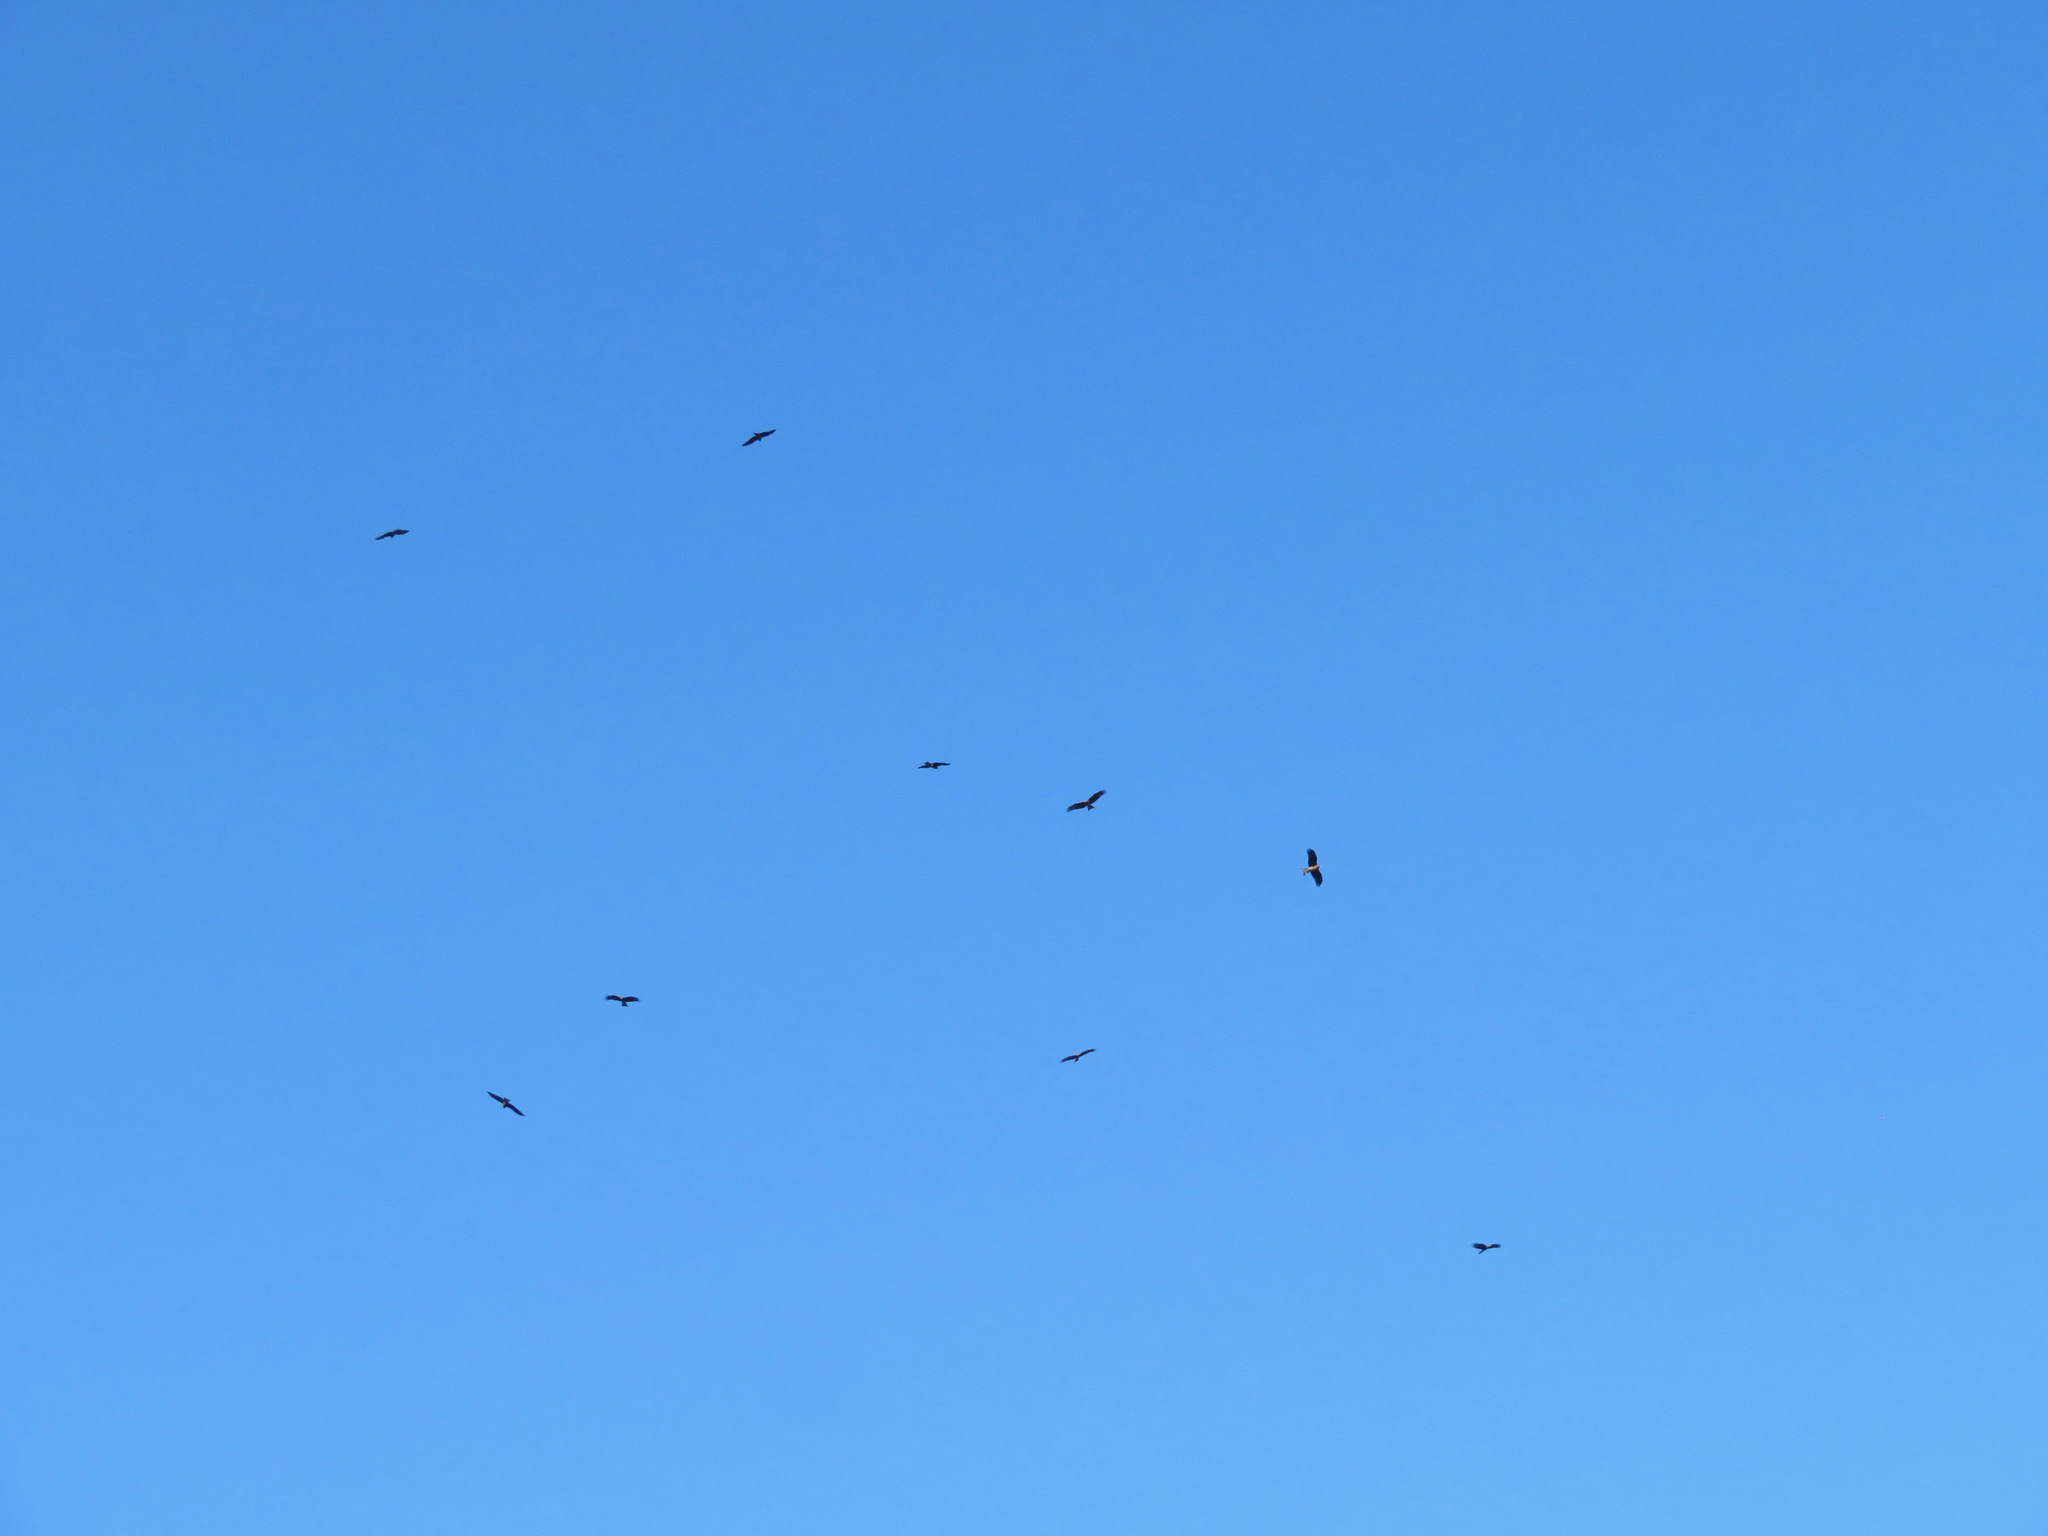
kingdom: Animalia
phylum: Chordata
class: Aves
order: Accipitriformes
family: Accipitridae
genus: Milvus
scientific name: Milvus migrans
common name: Black kite
